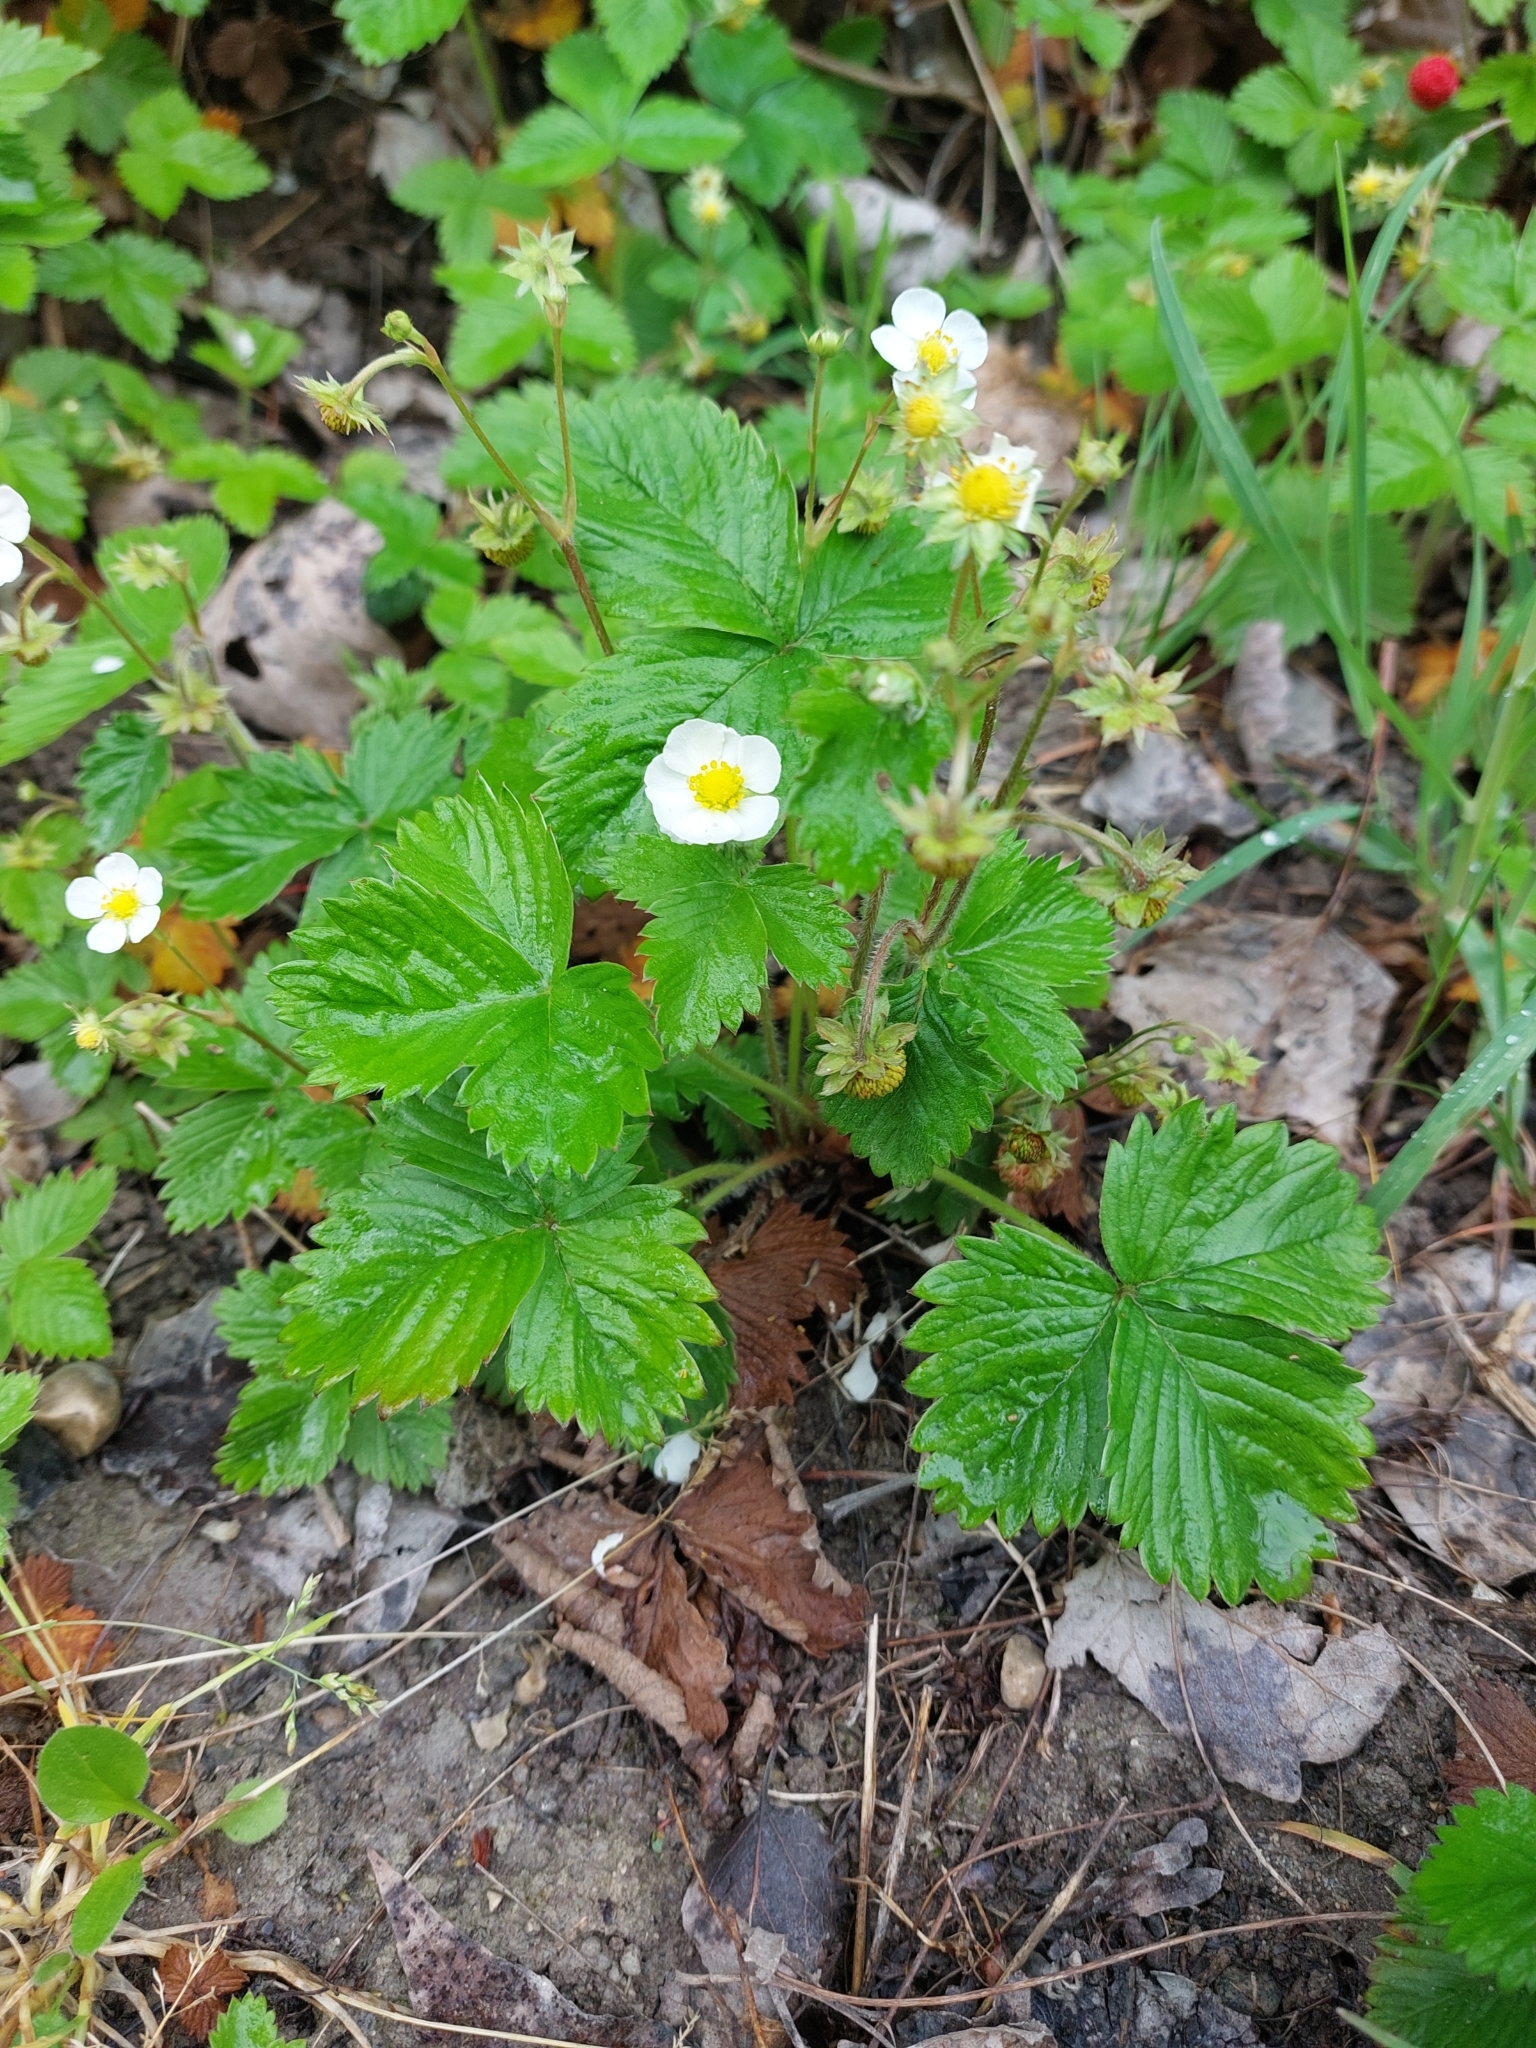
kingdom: Plantae
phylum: Tracheophyta
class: Magnoliopsida
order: Rosales
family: Rosaceae
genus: Fragaria
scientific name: Fragaria vesca
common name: Wild strawberry
